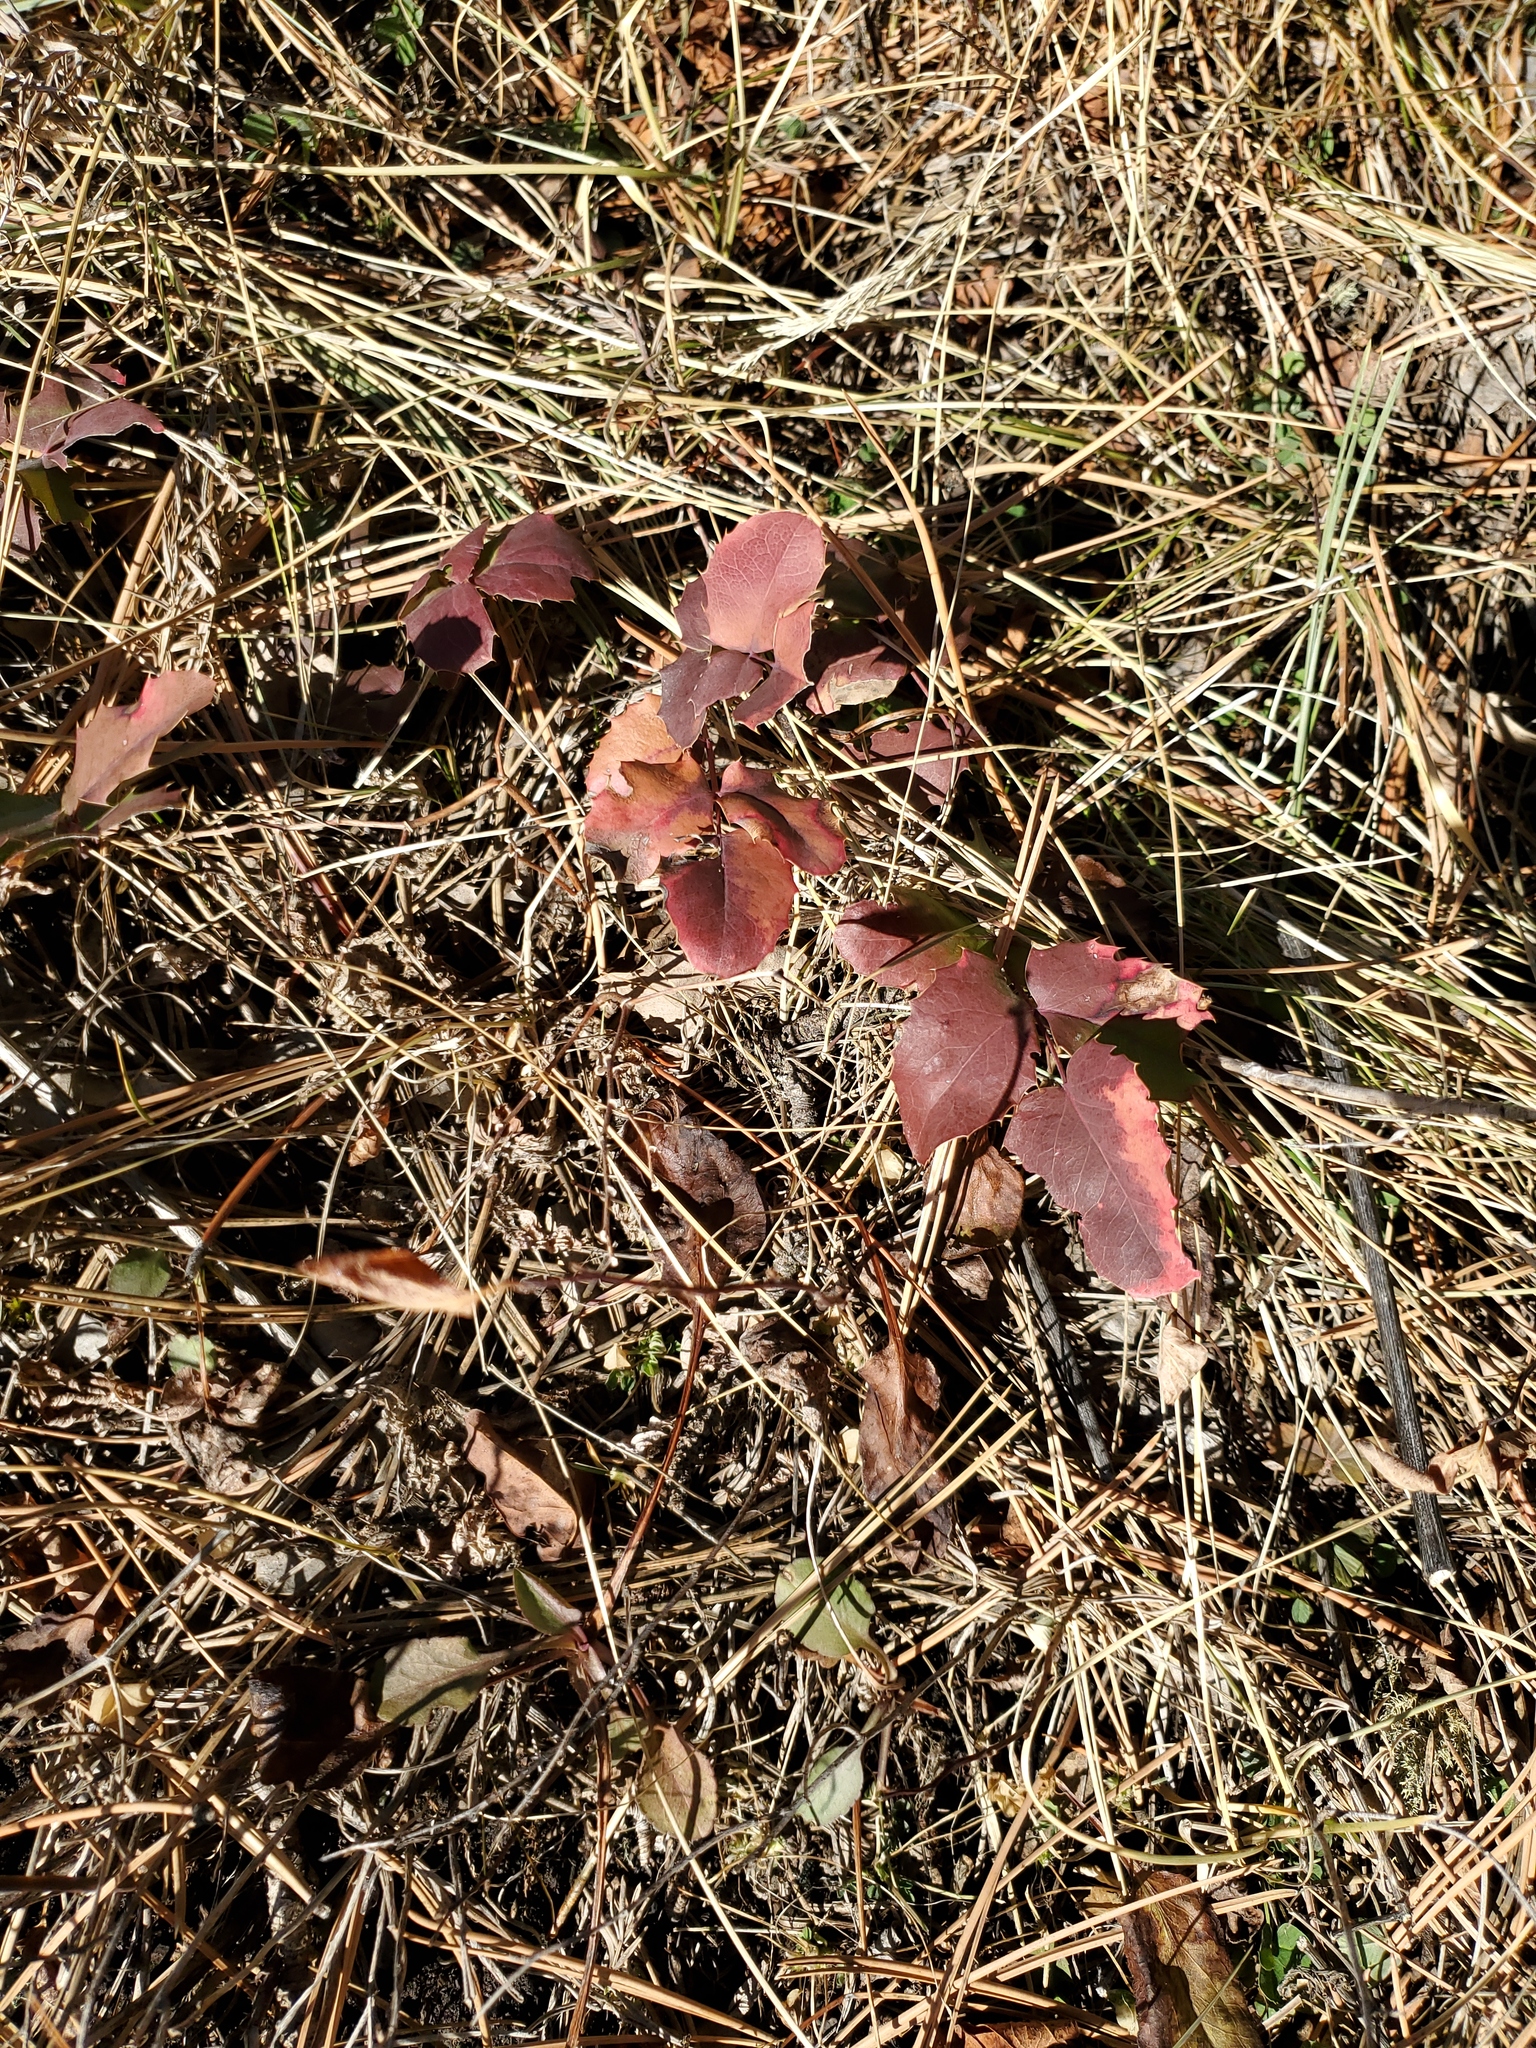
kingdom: Plantae
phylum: Tracheophyta
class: Magnoliopsida
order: Ranunculales
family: Berberidaceae
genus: Mahonia
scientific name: Mahonia repens
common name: Creeping oregon-grape
